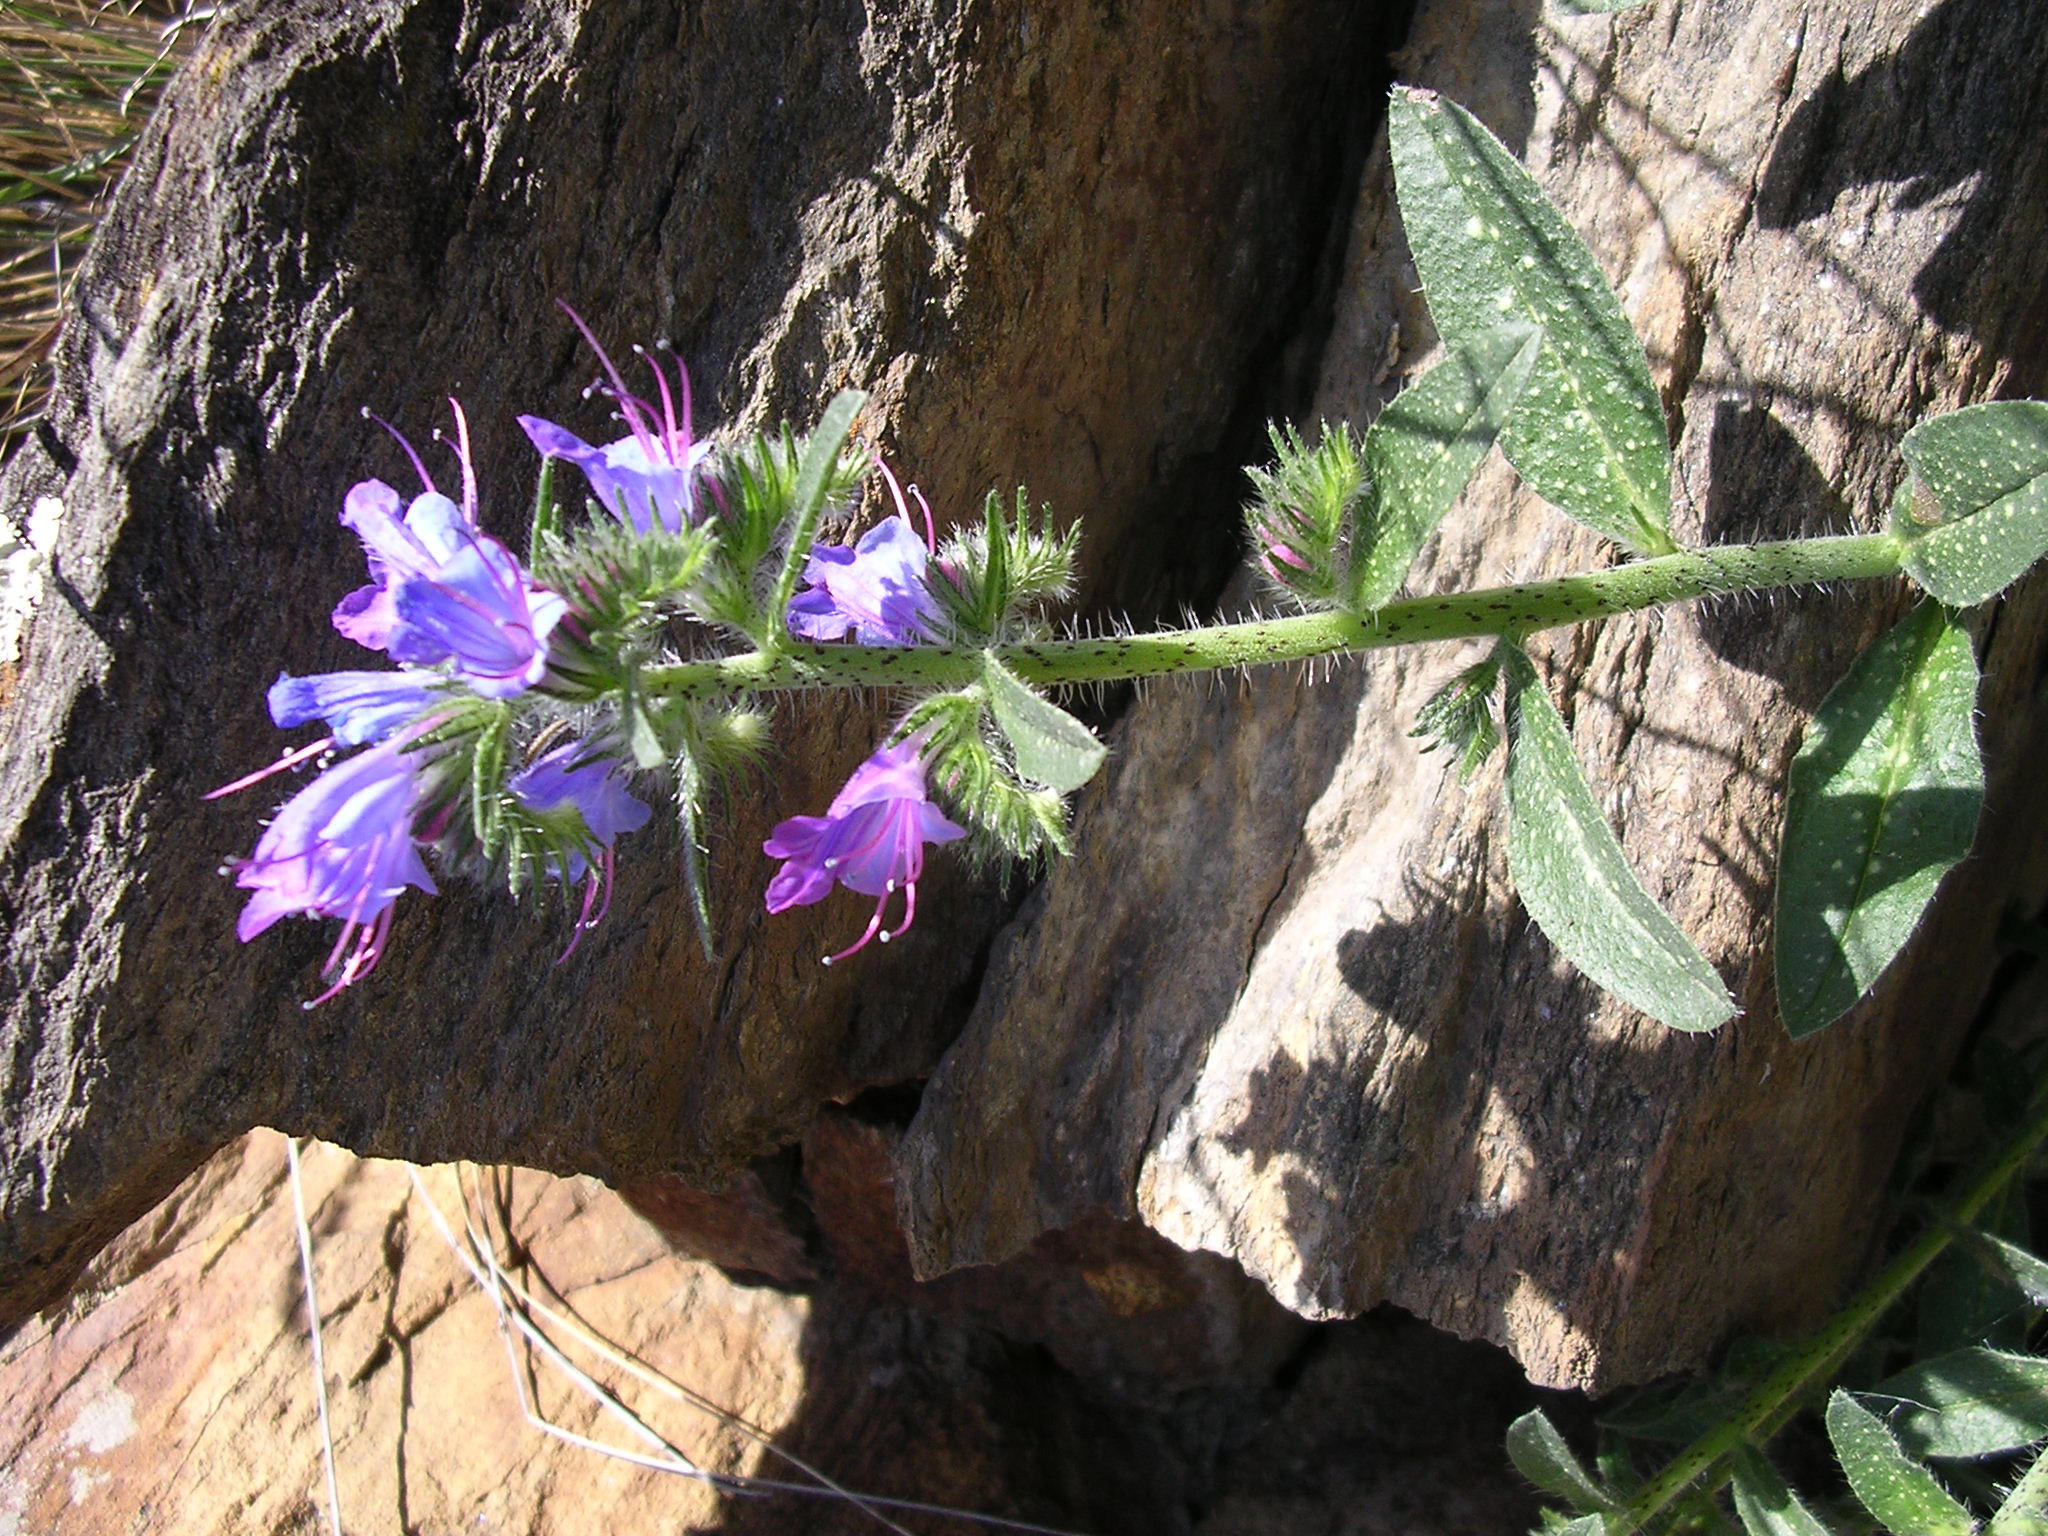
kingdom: Plantae
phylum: Tracheophyta
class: Magnoliopsida
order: Boraginales
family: Boraginaceae
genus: Echium
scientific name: Echium vulgare
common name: Common viper's bugloss
